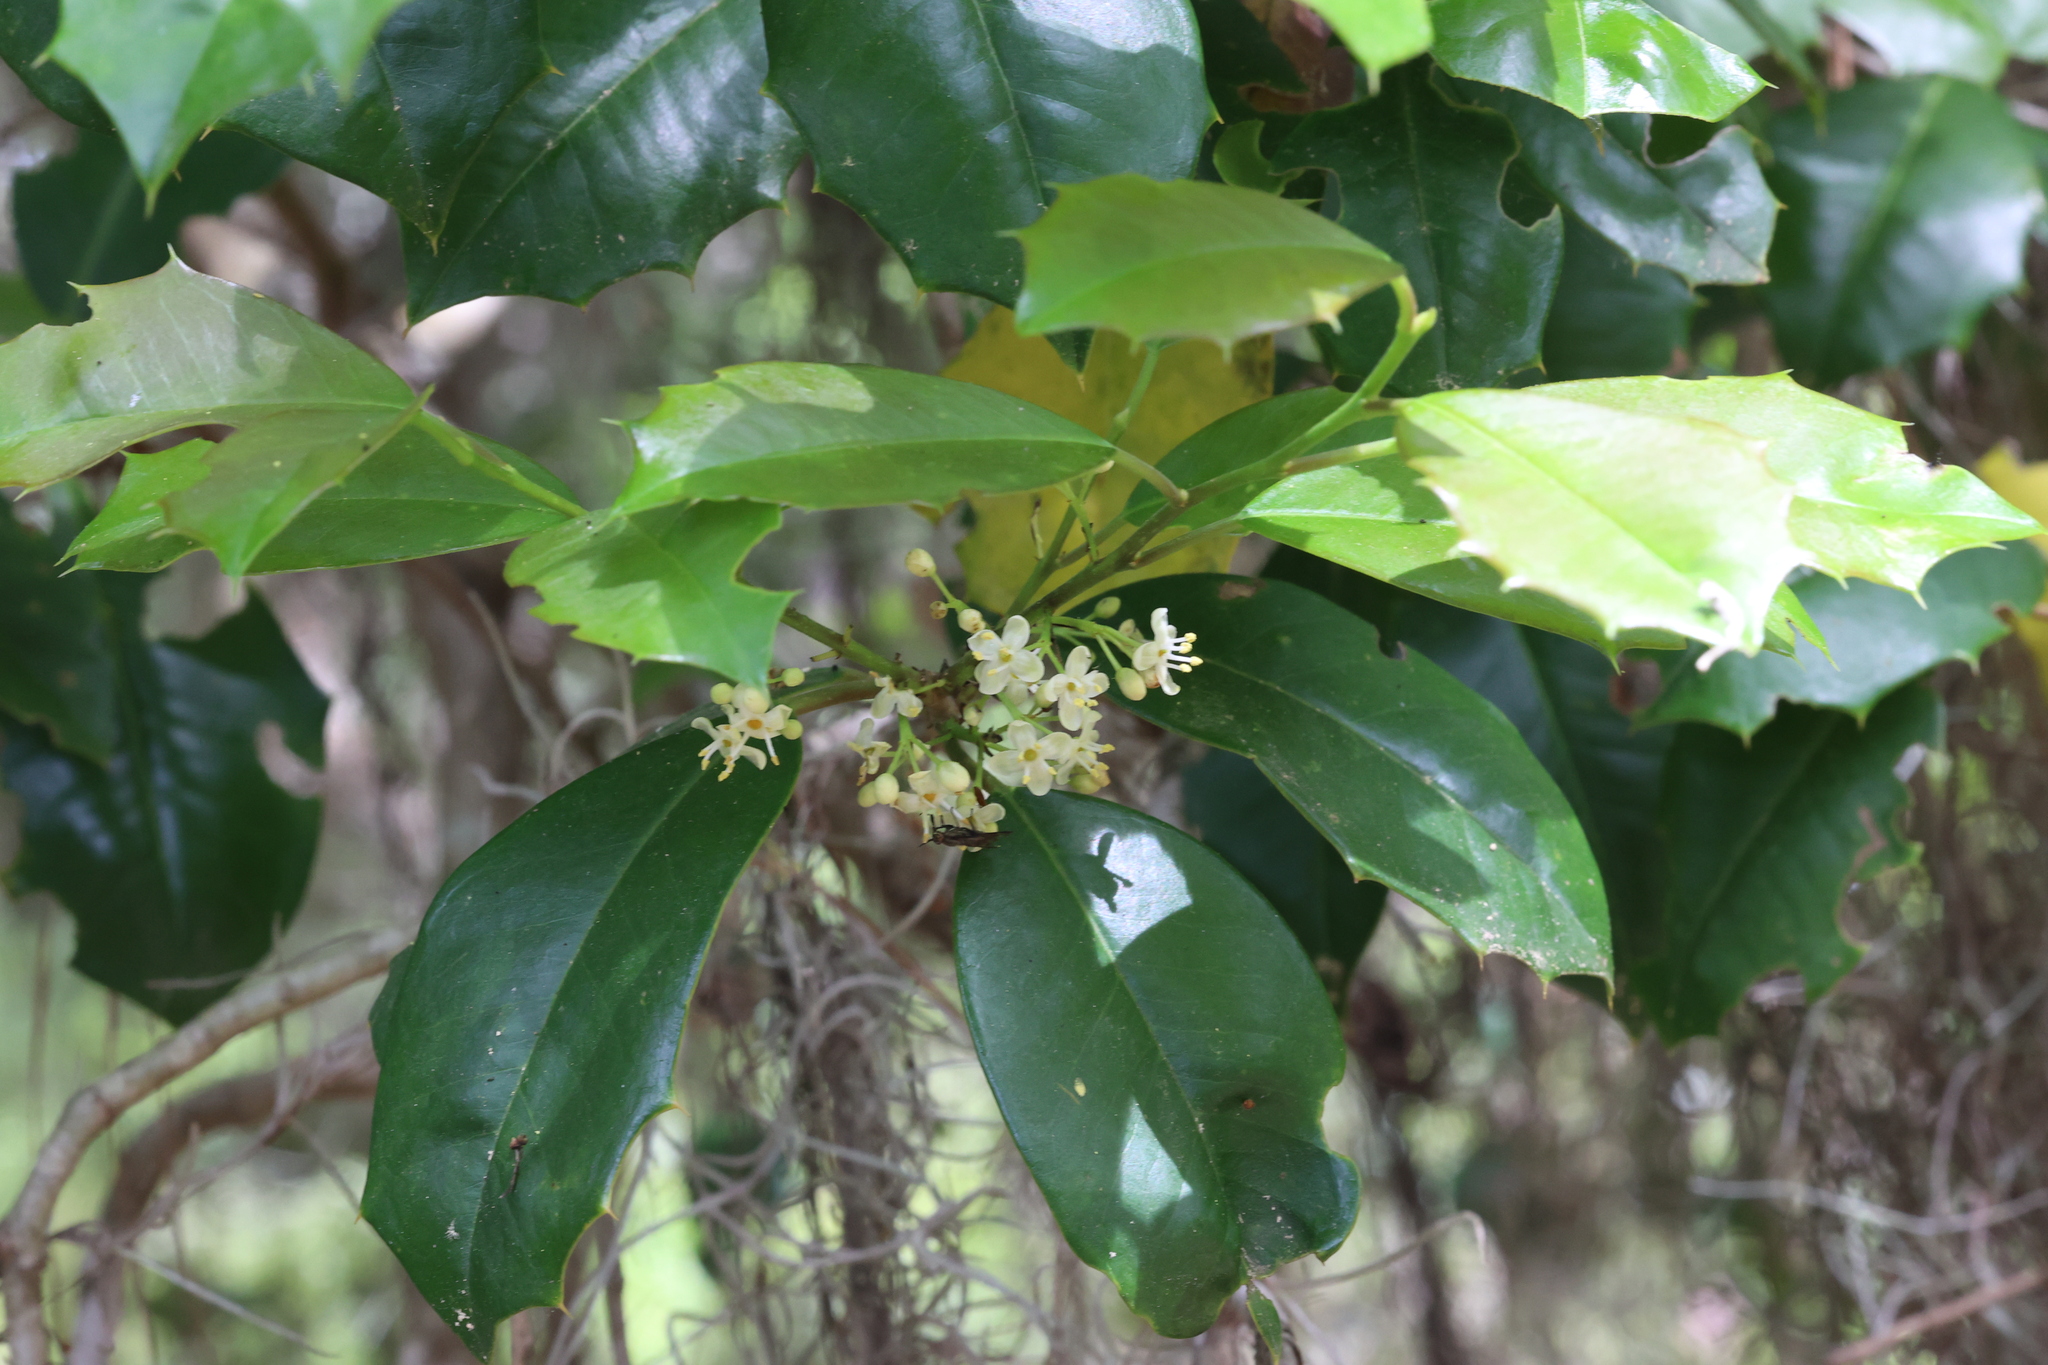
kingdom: Plantae
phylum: Tracheophyta
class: Magnoliopsida
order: Aquifoliales
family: Aquifoliaceae
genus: Ilex
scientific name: Ilex opaca
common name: American holly
